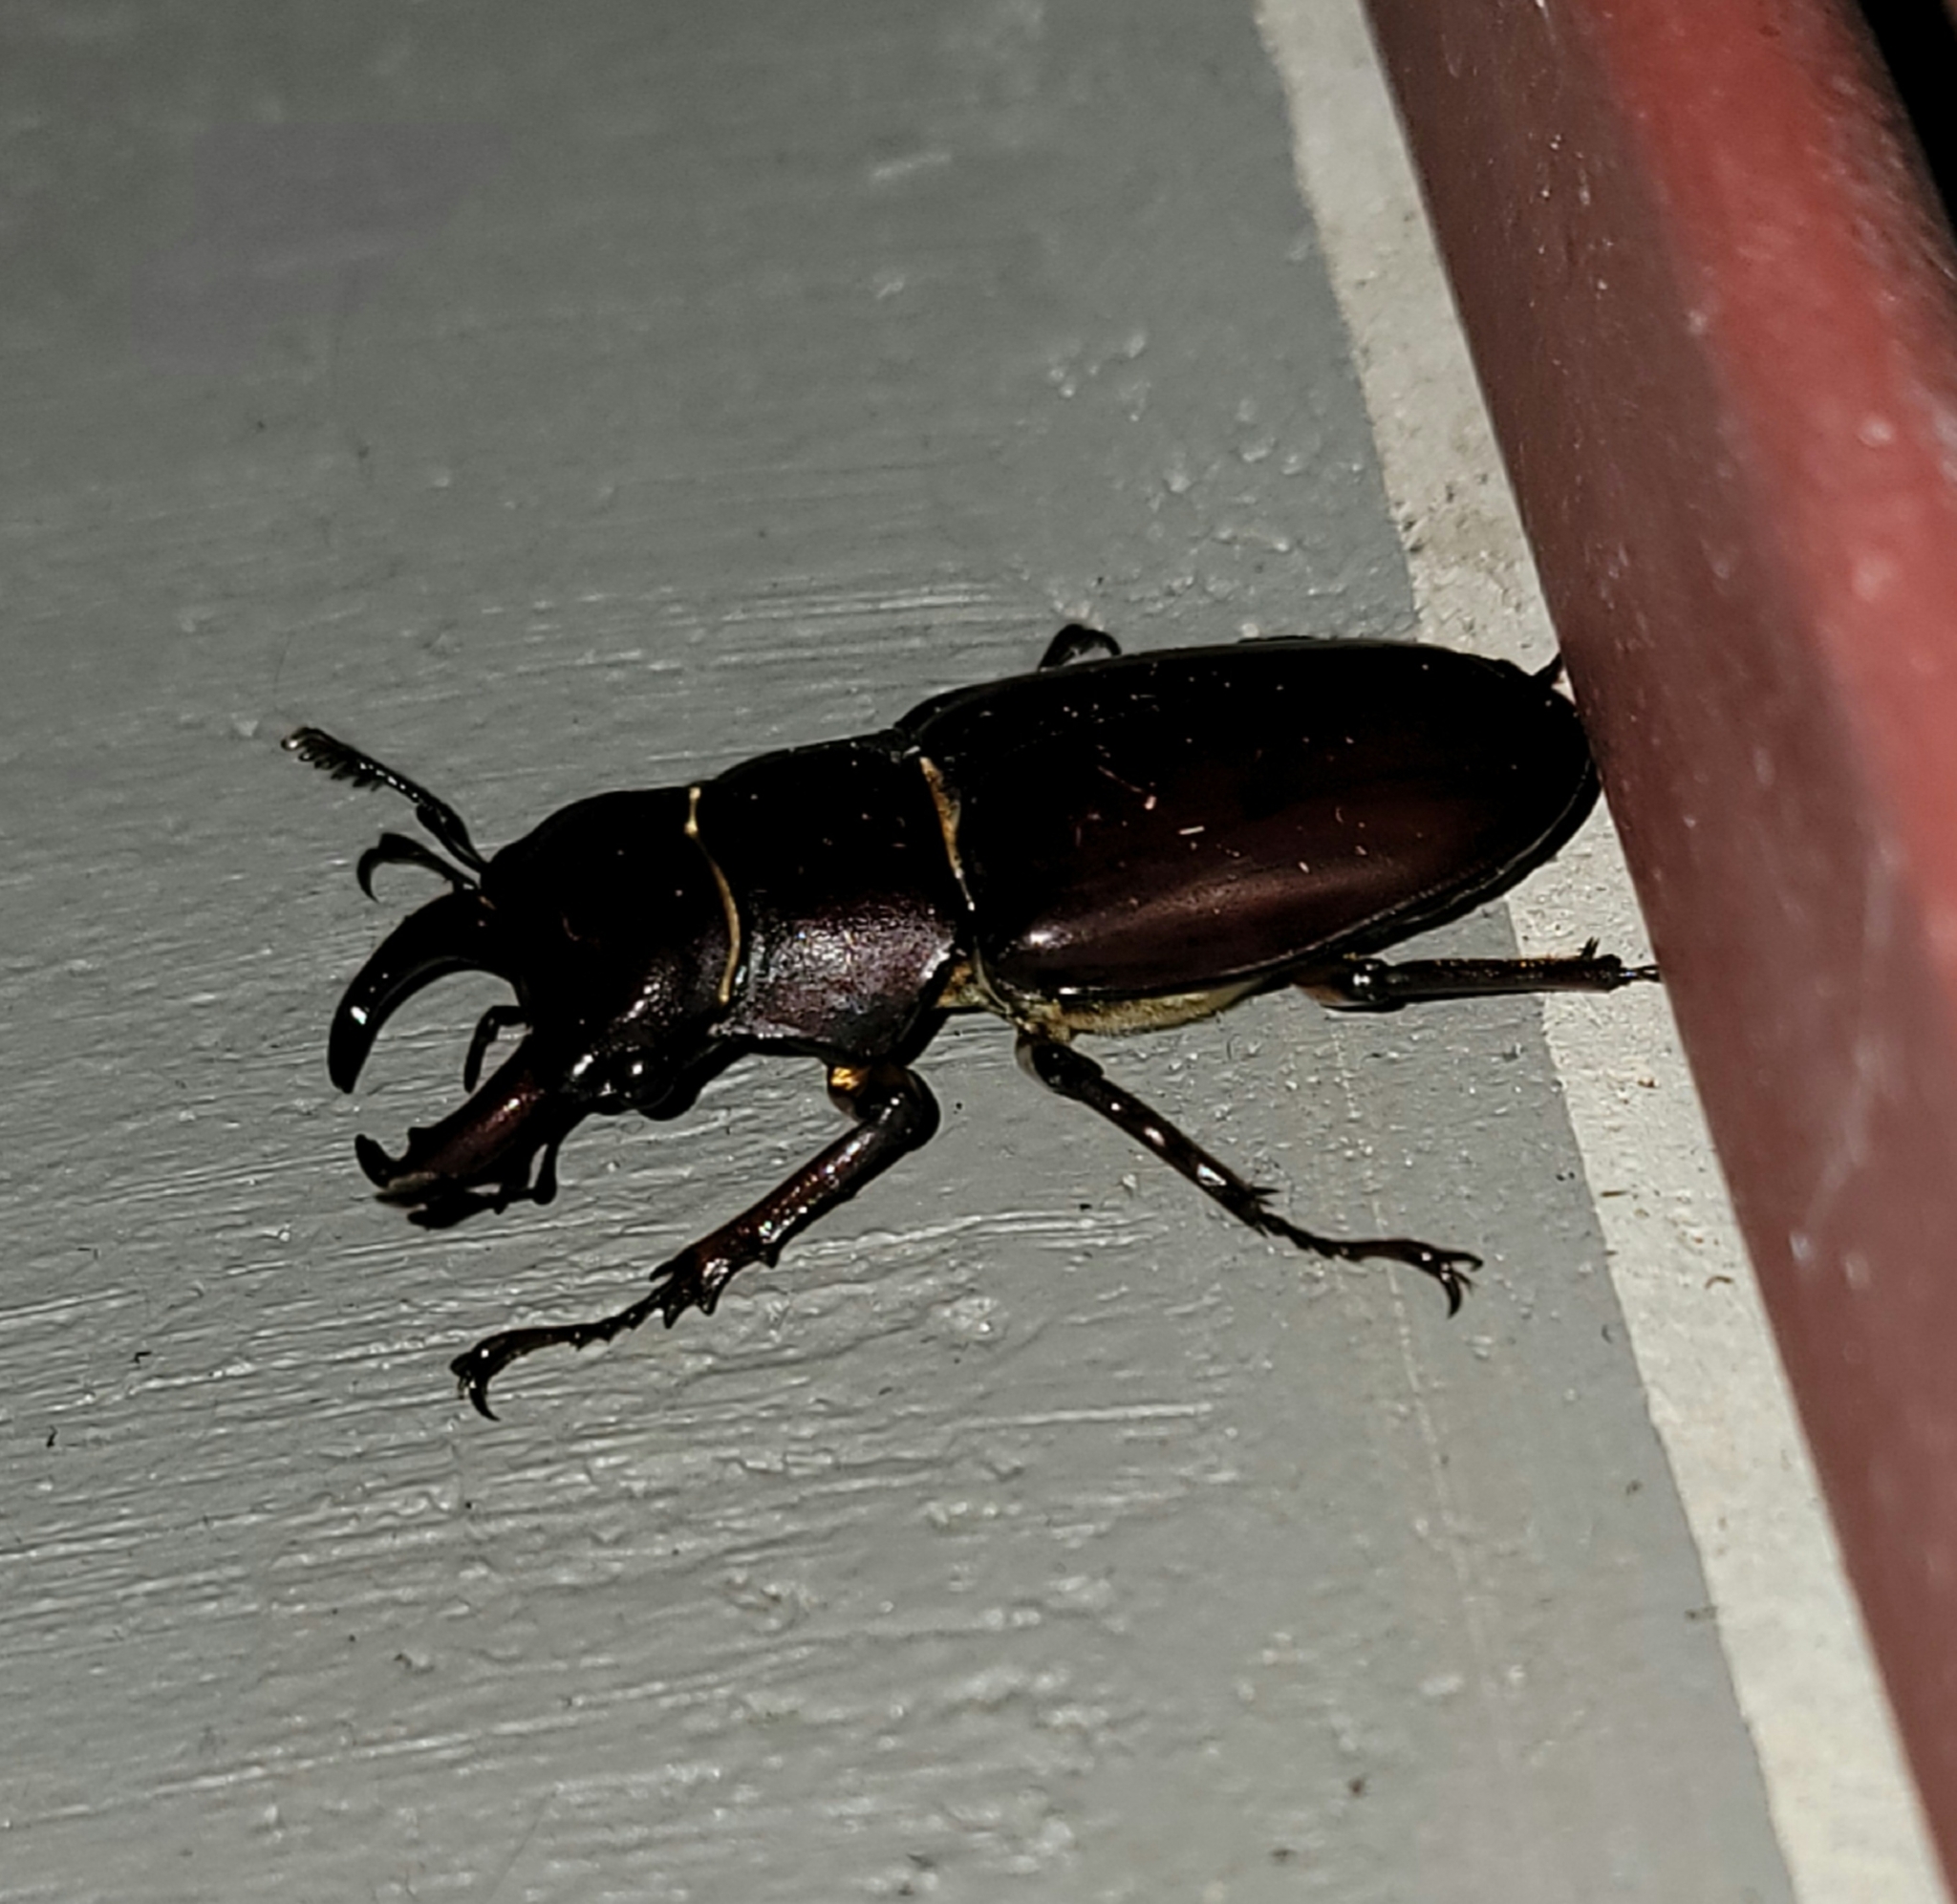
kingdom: Animalia
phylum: Arthropoda
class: Insecta
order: Coleoptera
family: Lucanidae
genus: Lucanus
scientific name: Lucanus capreolus
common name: Stag beetle
